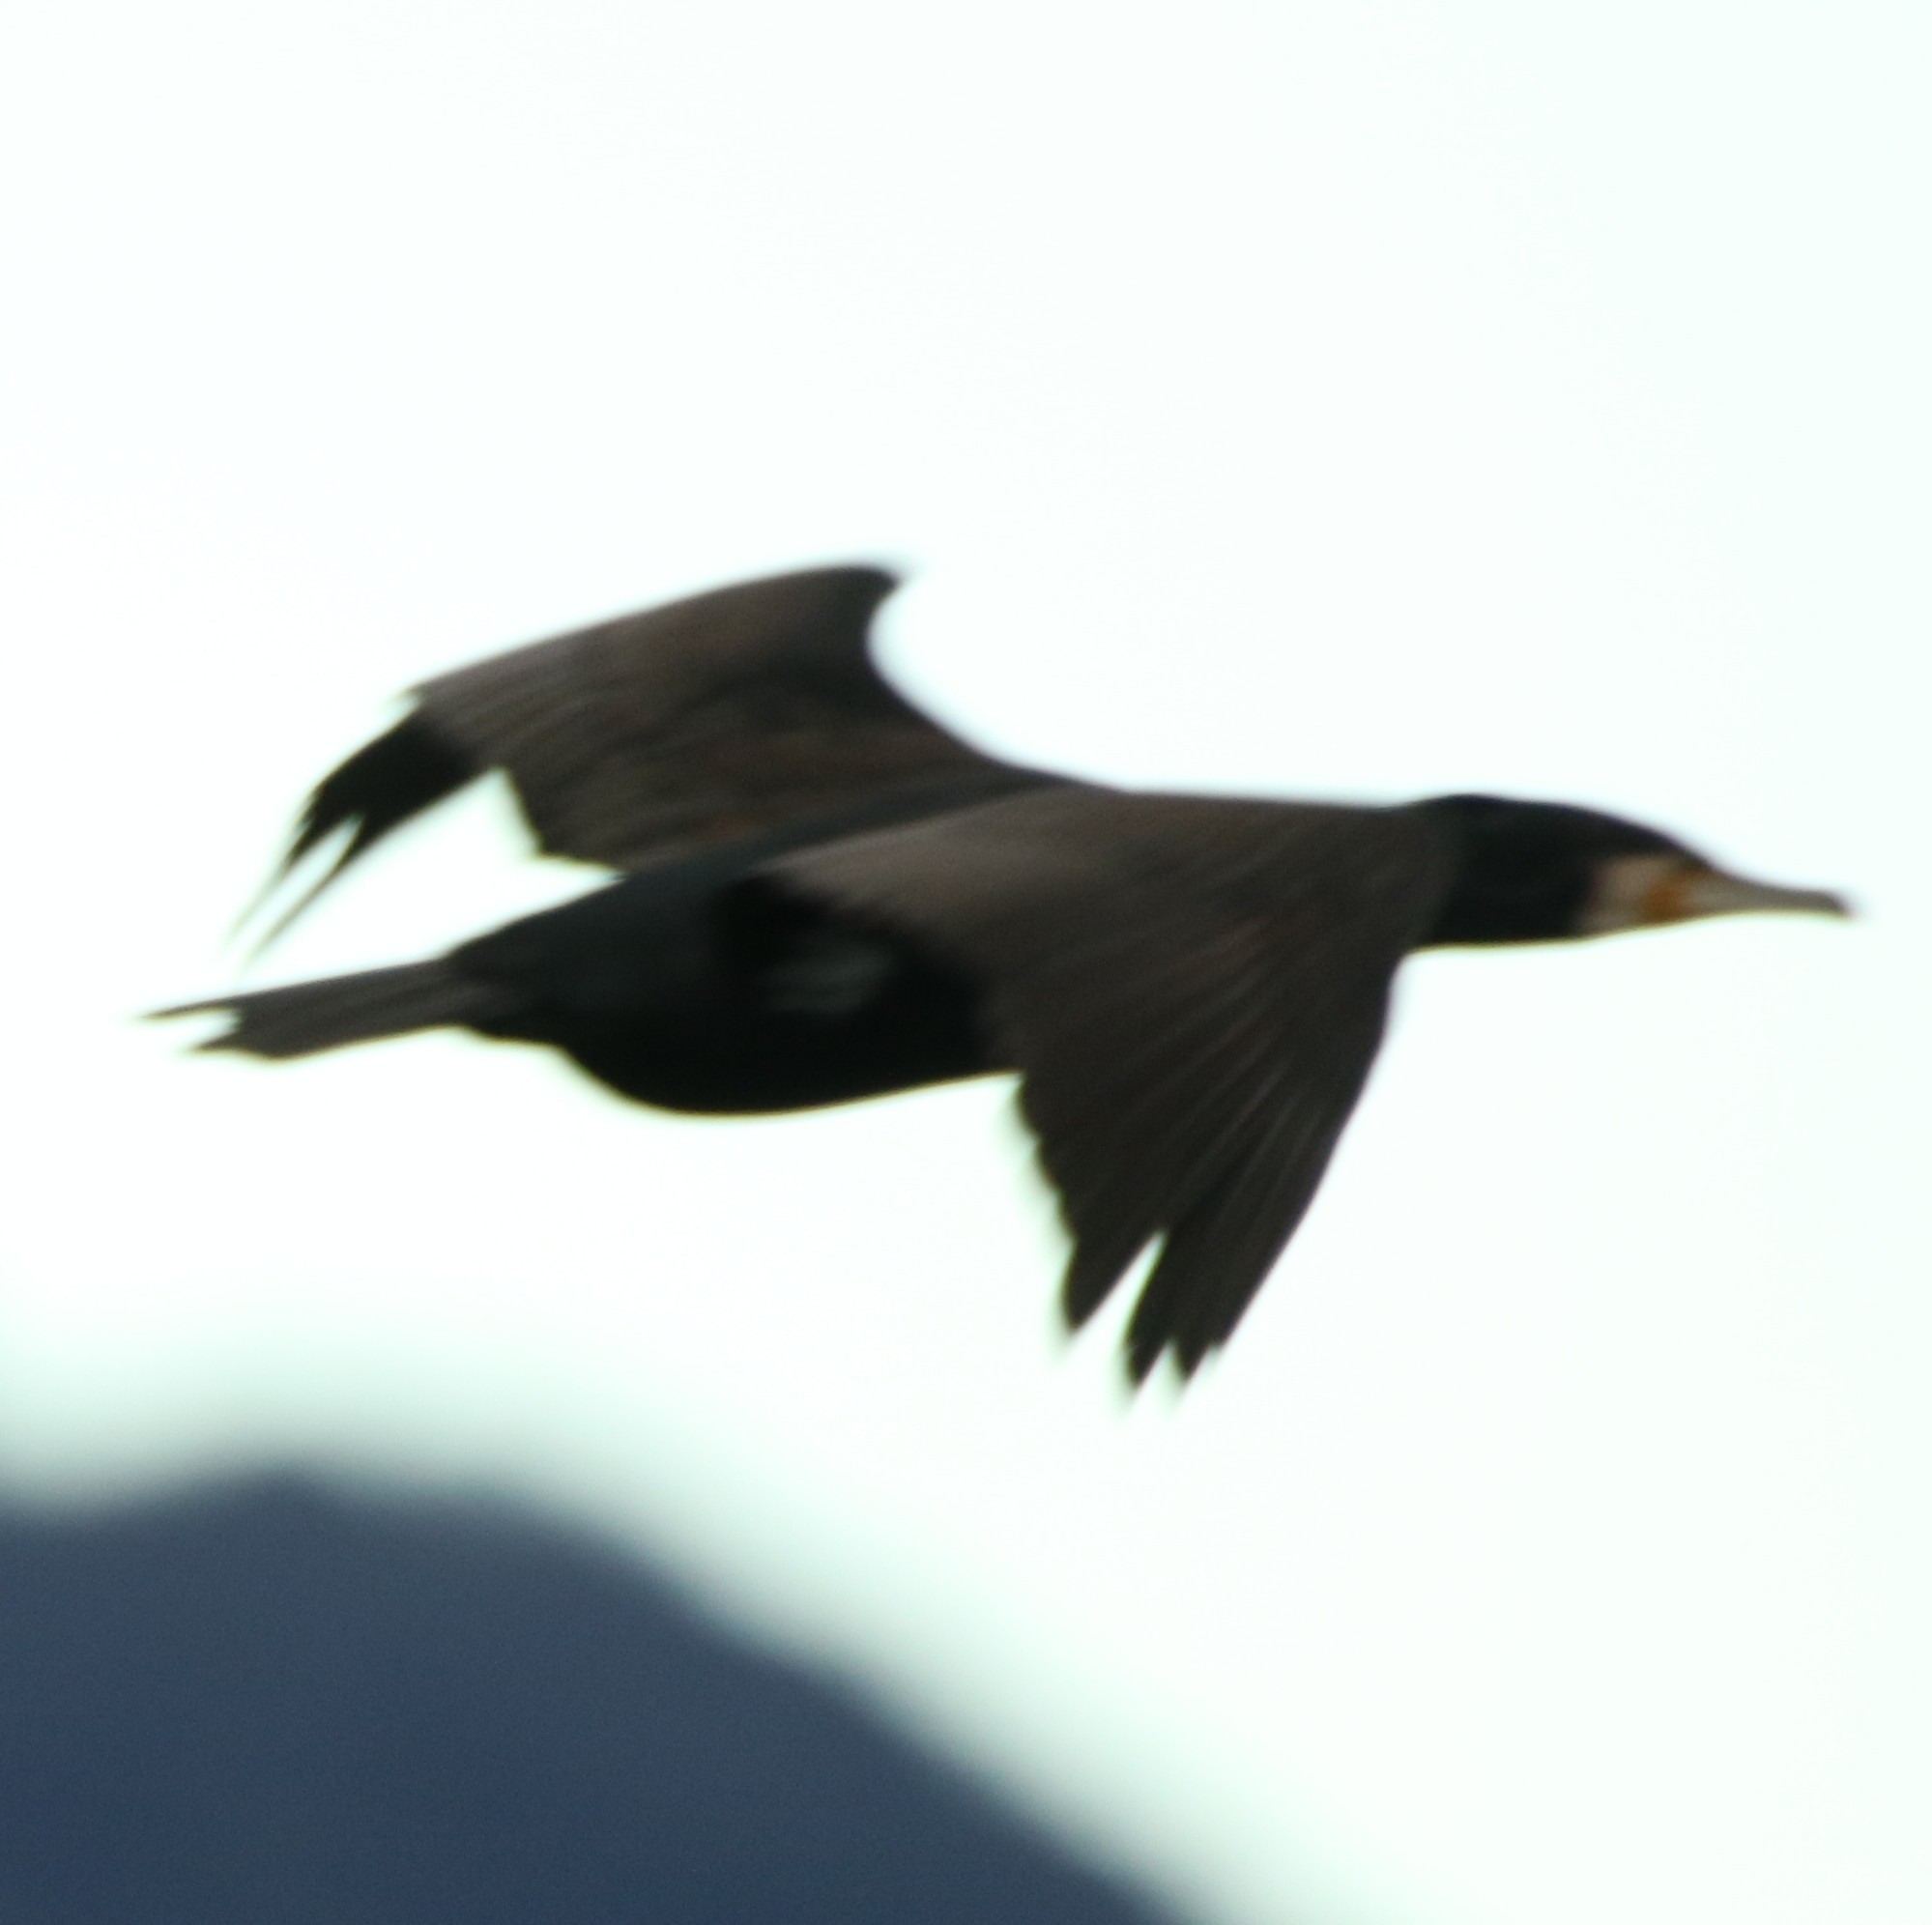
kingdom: Animalia
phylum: Chordata
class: Aves
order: Suliformes
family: Phalacrocoracidae
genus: Phalacrocorax
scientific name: Phalacrocorax carbo
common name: Great cormorant
